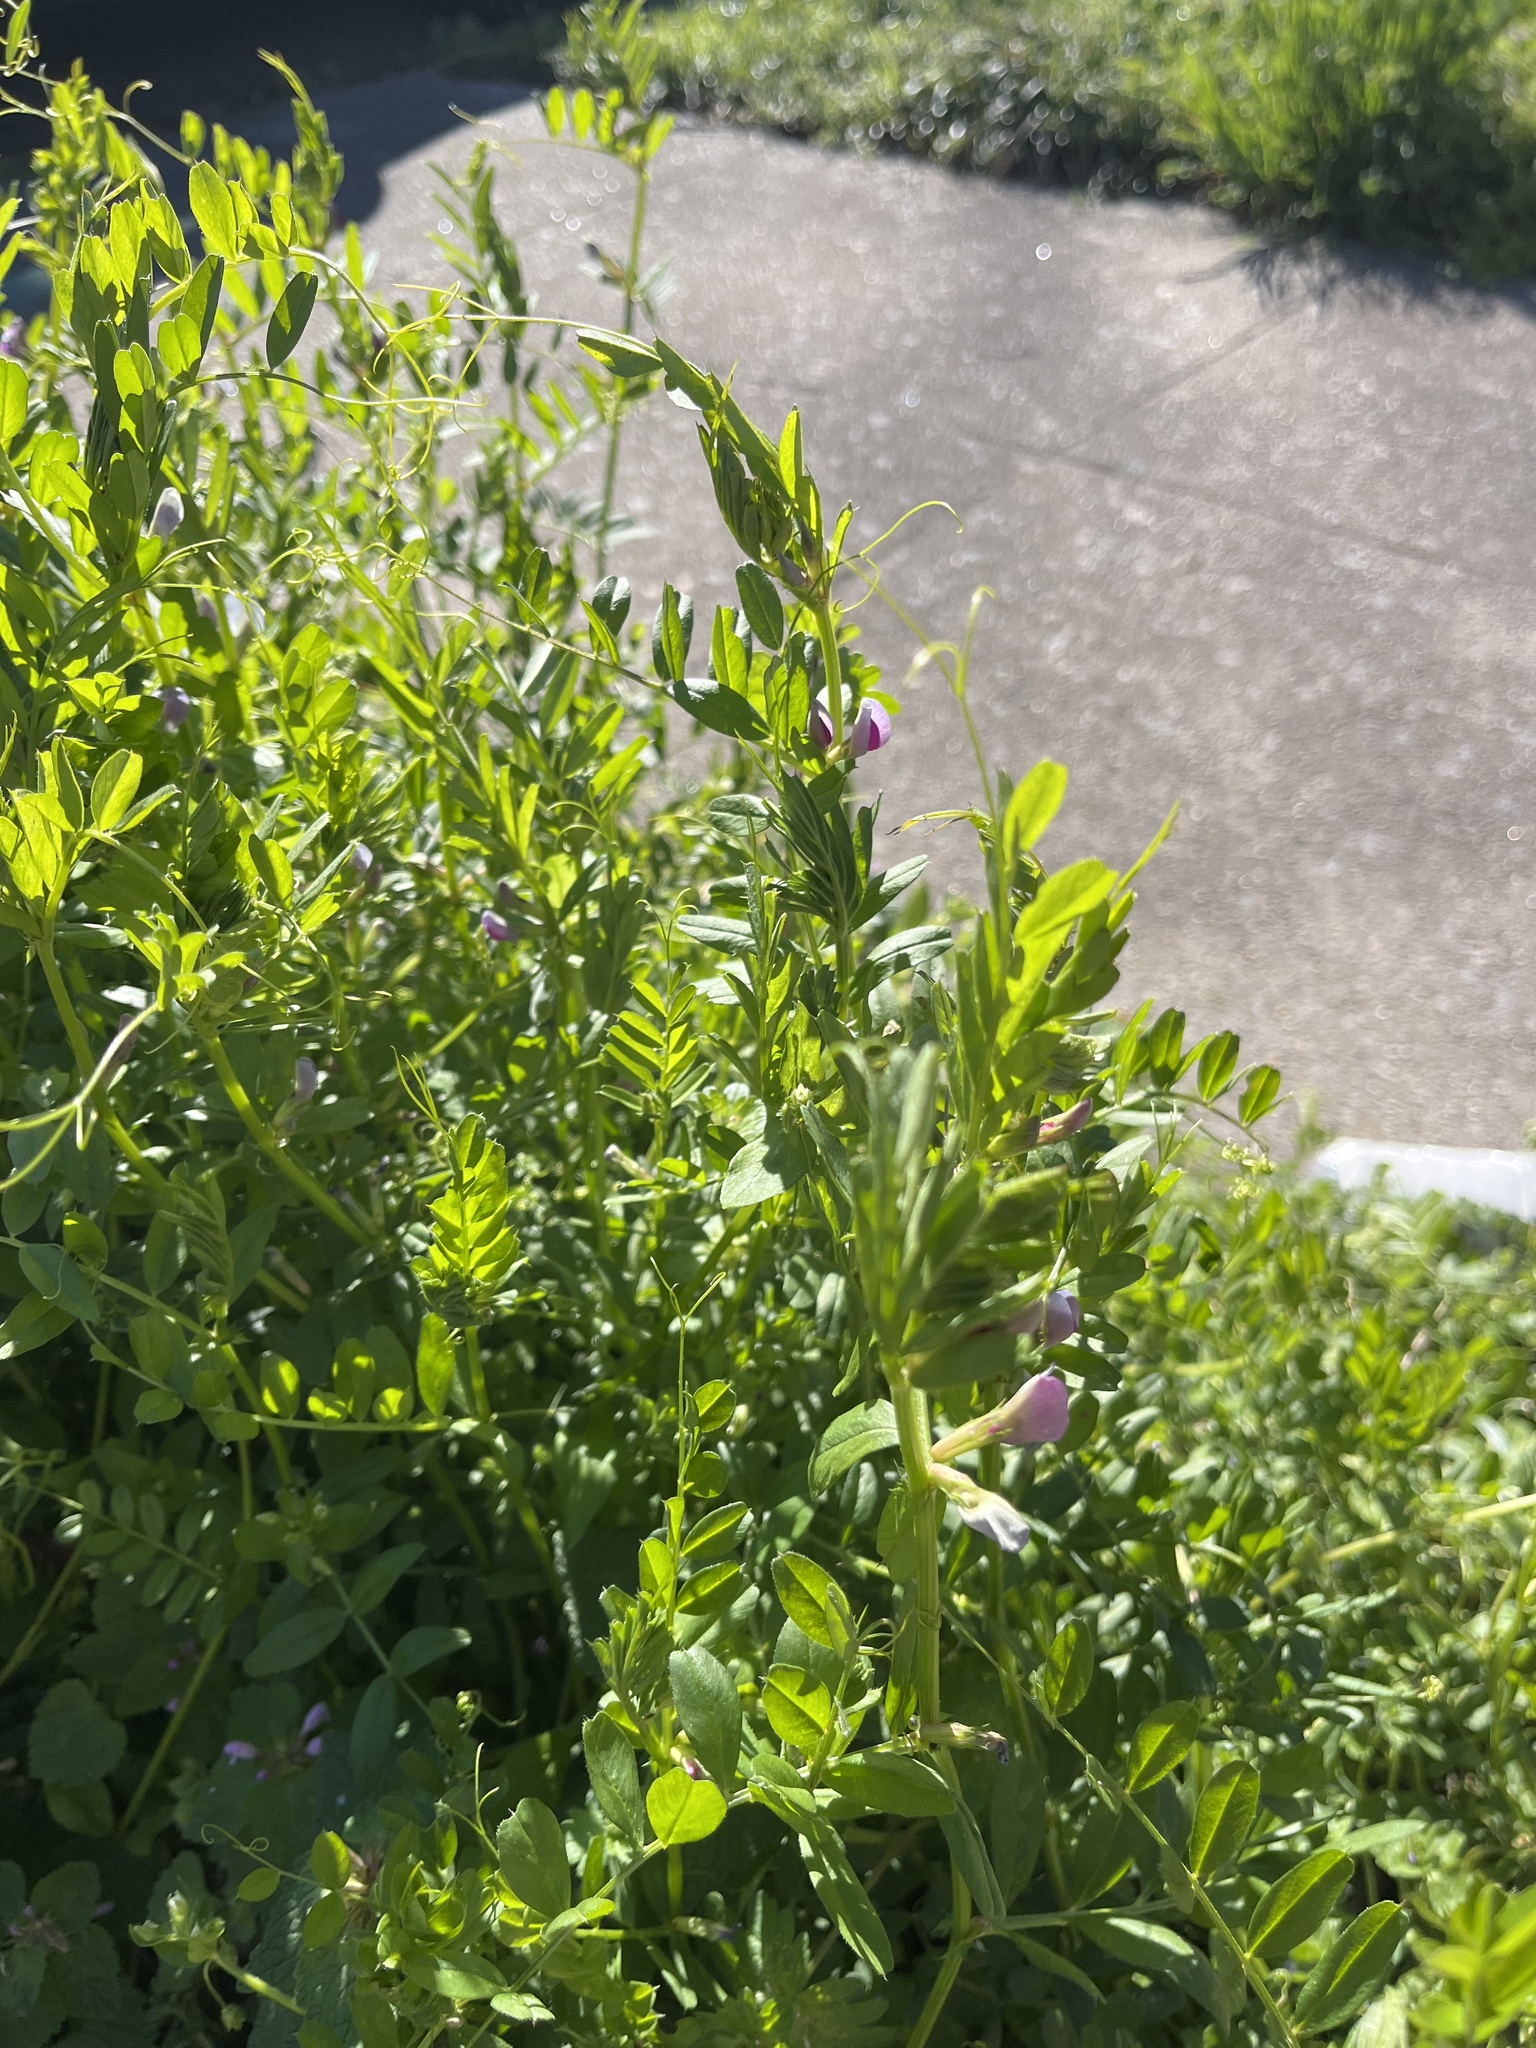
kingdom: Plantae
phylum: Tracheophyta
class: Magnoliopsida
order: Fabales
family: Fabaceae
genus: Vicia
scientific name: Vicia sativa
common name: Garden vetch
